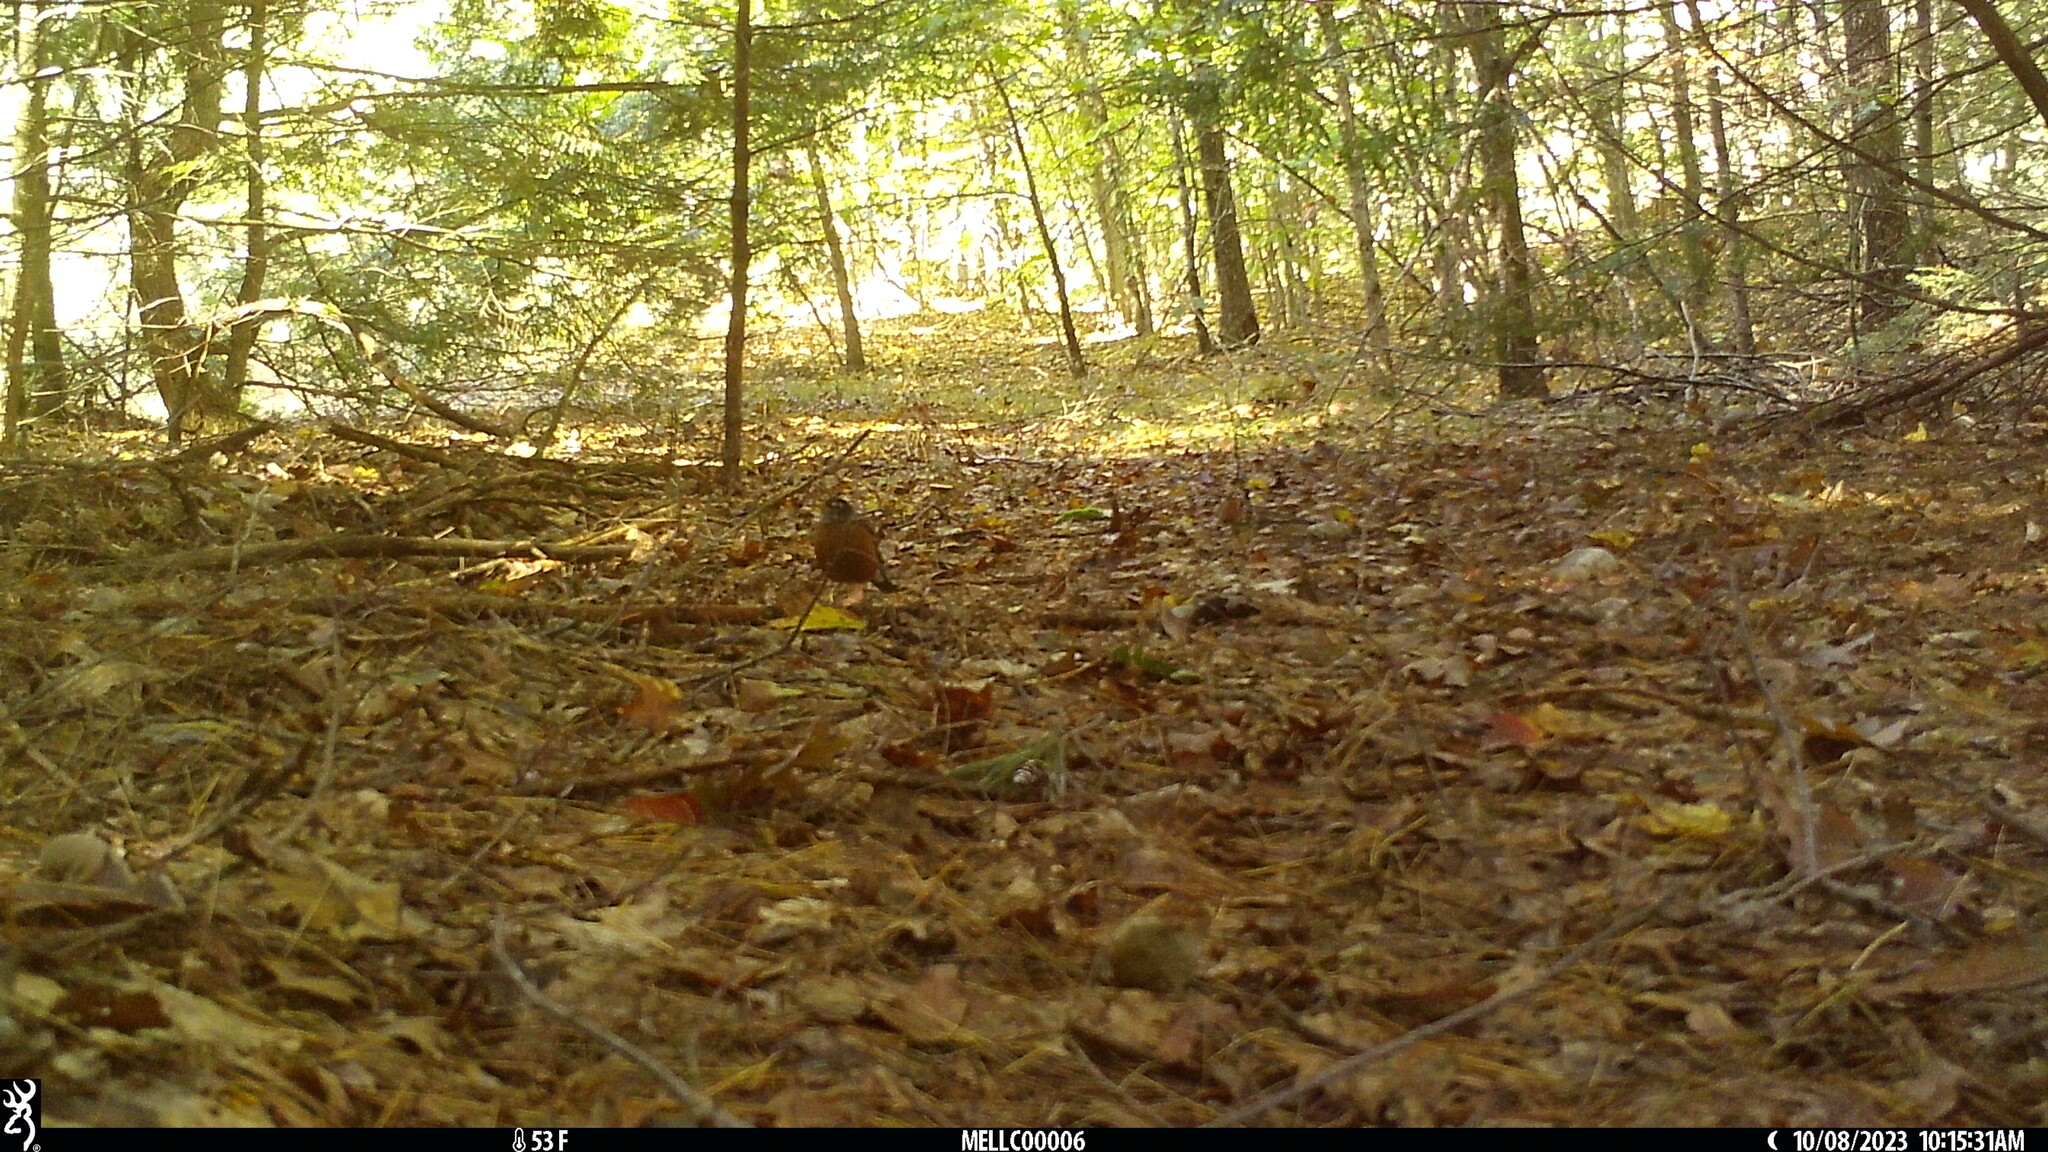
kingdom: Animalia
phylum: Chordata
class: Aves
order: Passeriformes
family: Turdidae
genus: Turdus
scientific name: Turdus migratorius
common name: American robin
